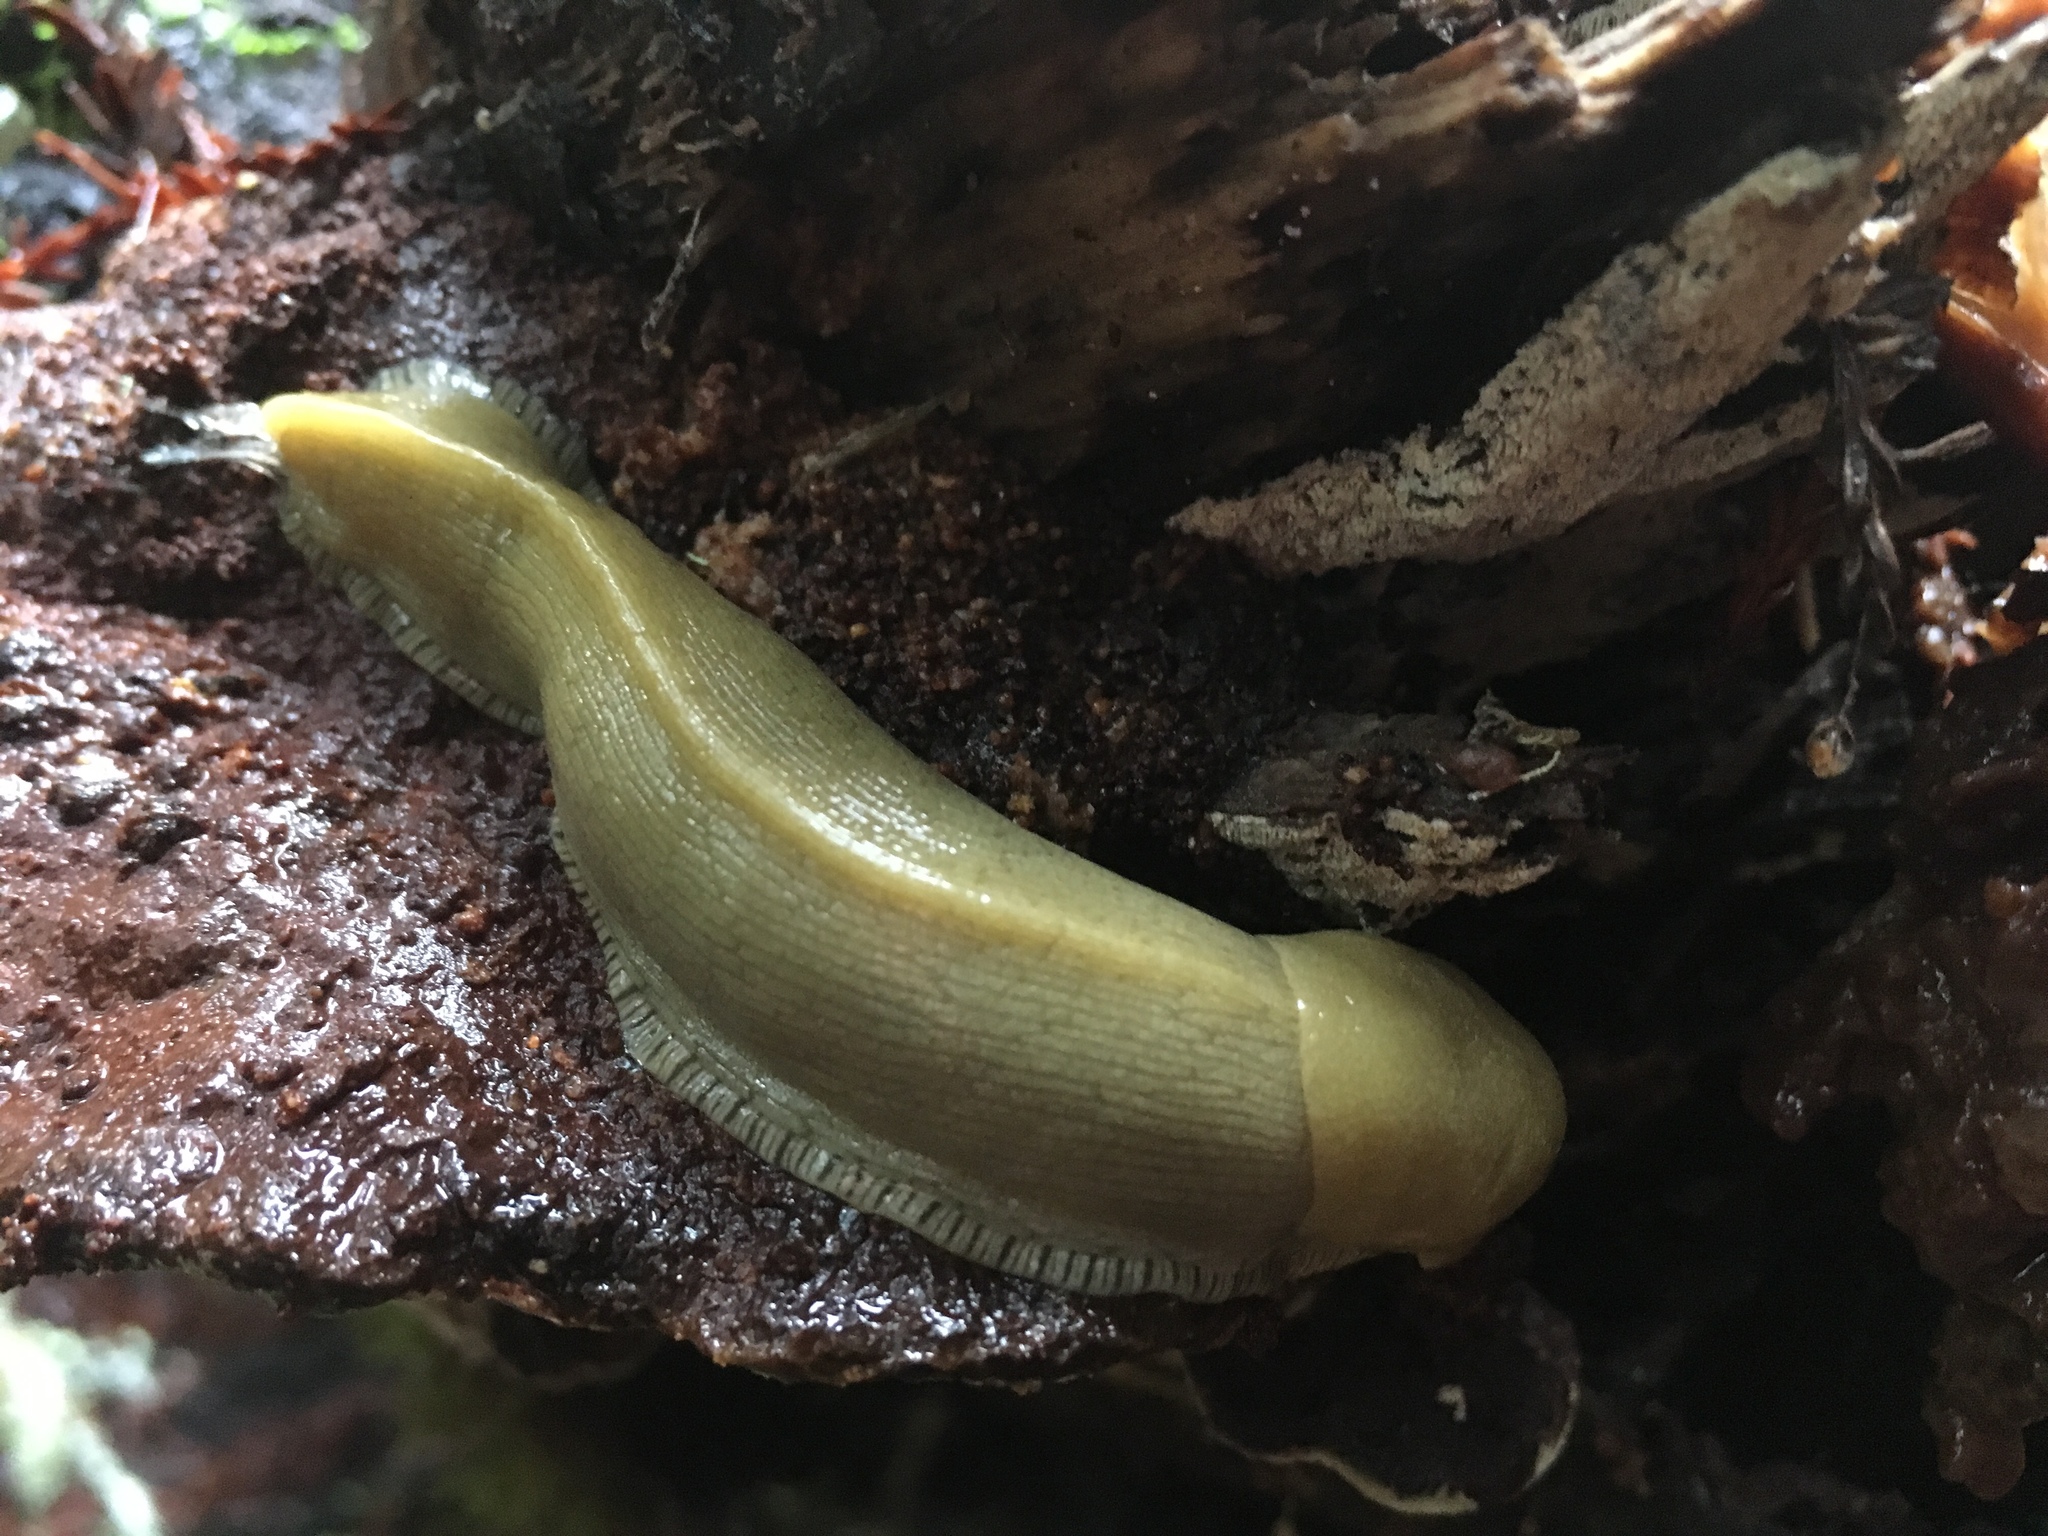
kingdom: Animalia
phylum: Mollusca
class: Gastropoda
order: Stylommatophora
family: Ariolimacidae
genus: Ariolimax
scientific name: Ariolimax buttoni
